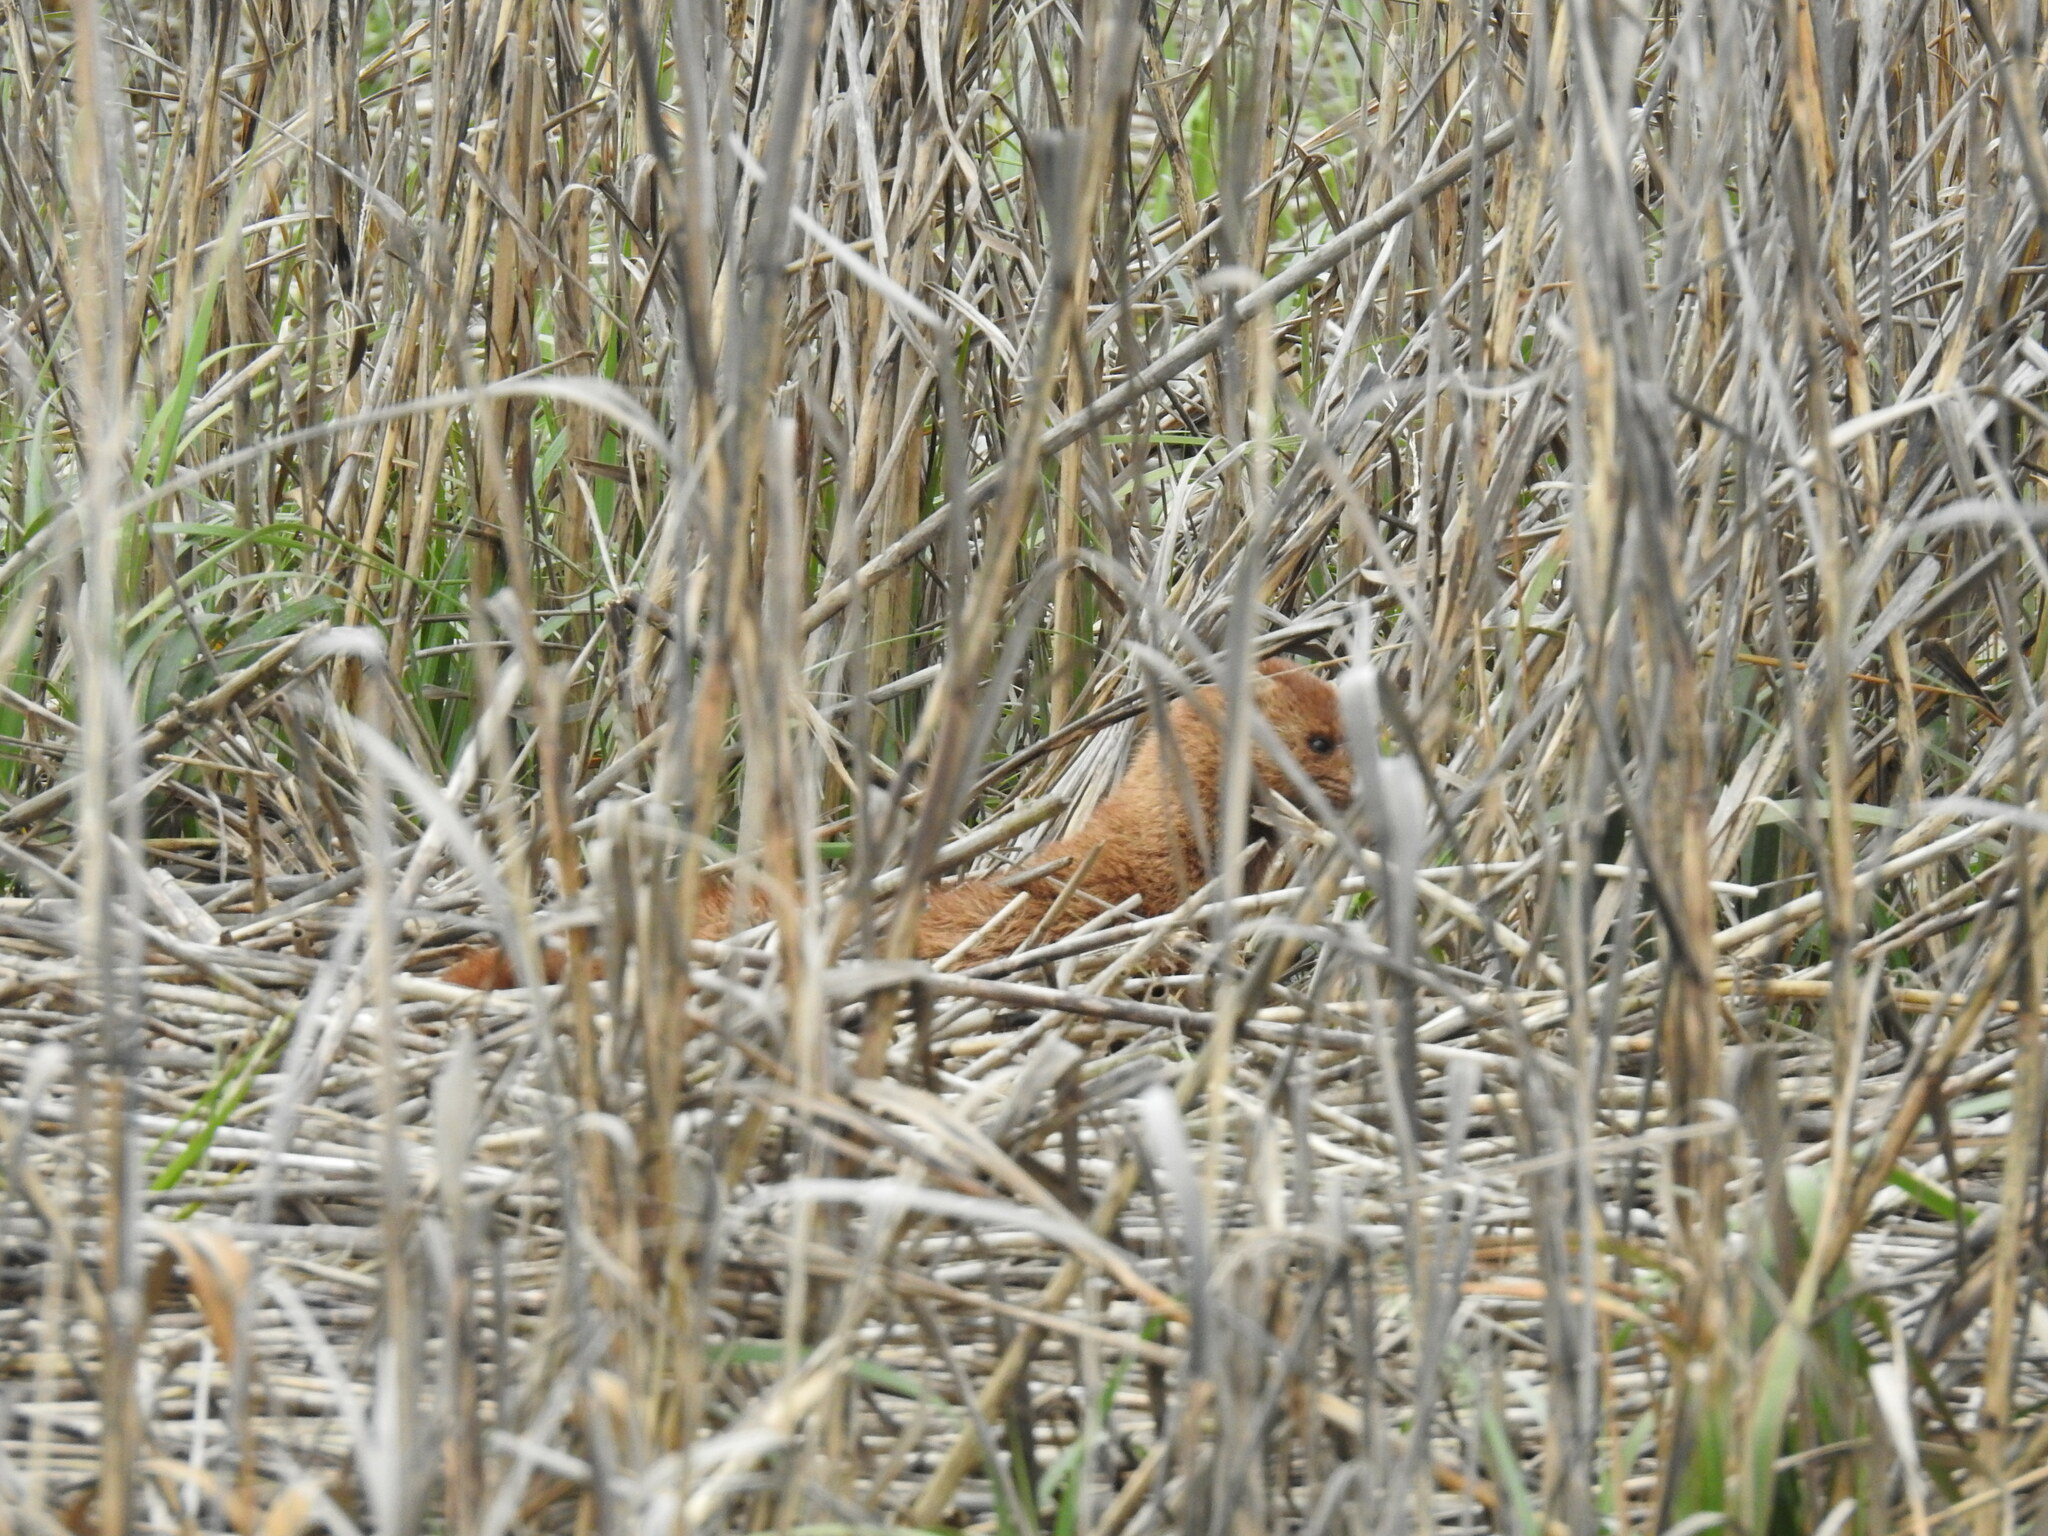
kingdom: Animalia
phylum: Chordata
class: Mammalia
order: Carnivora
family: Mustelidae
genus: Mustela
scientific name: Mustela
